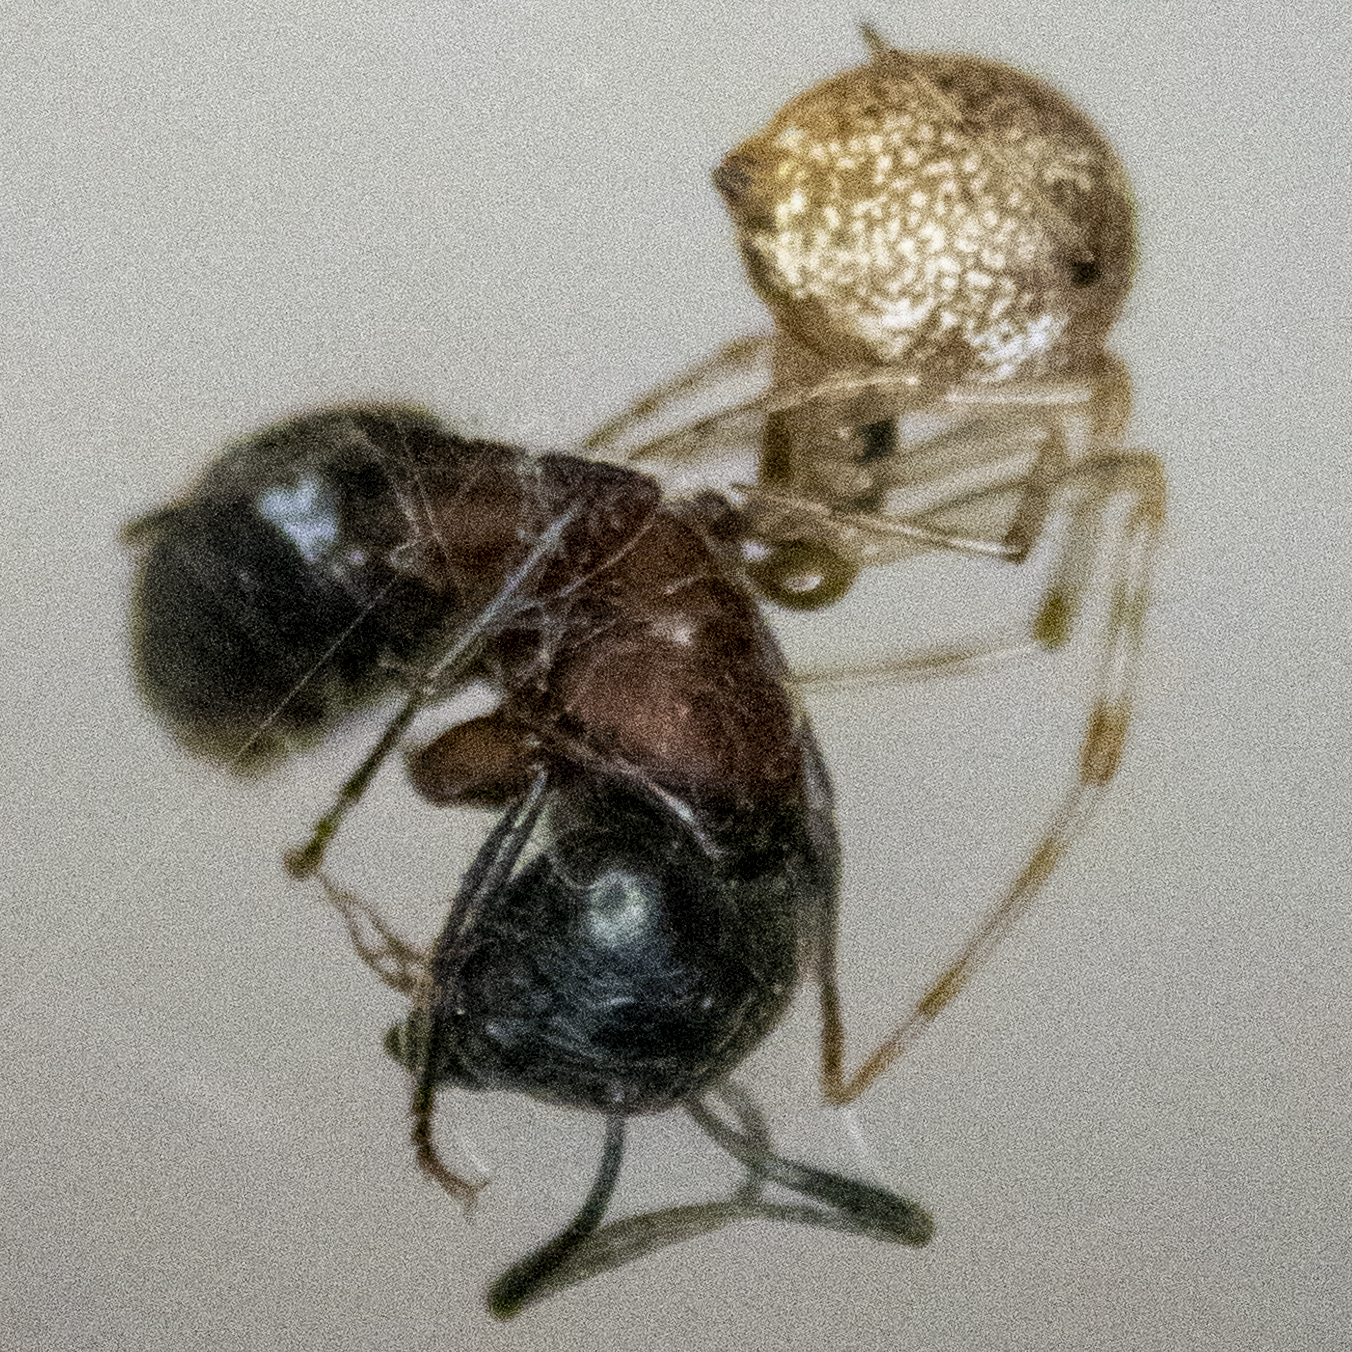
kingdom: Animalia
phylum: Arthropoda
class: Insecta
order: Hymenoptera
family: Formicidae
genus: Camponotus
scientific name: Camponotus novaeboracensis
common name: New york carpenter ant
